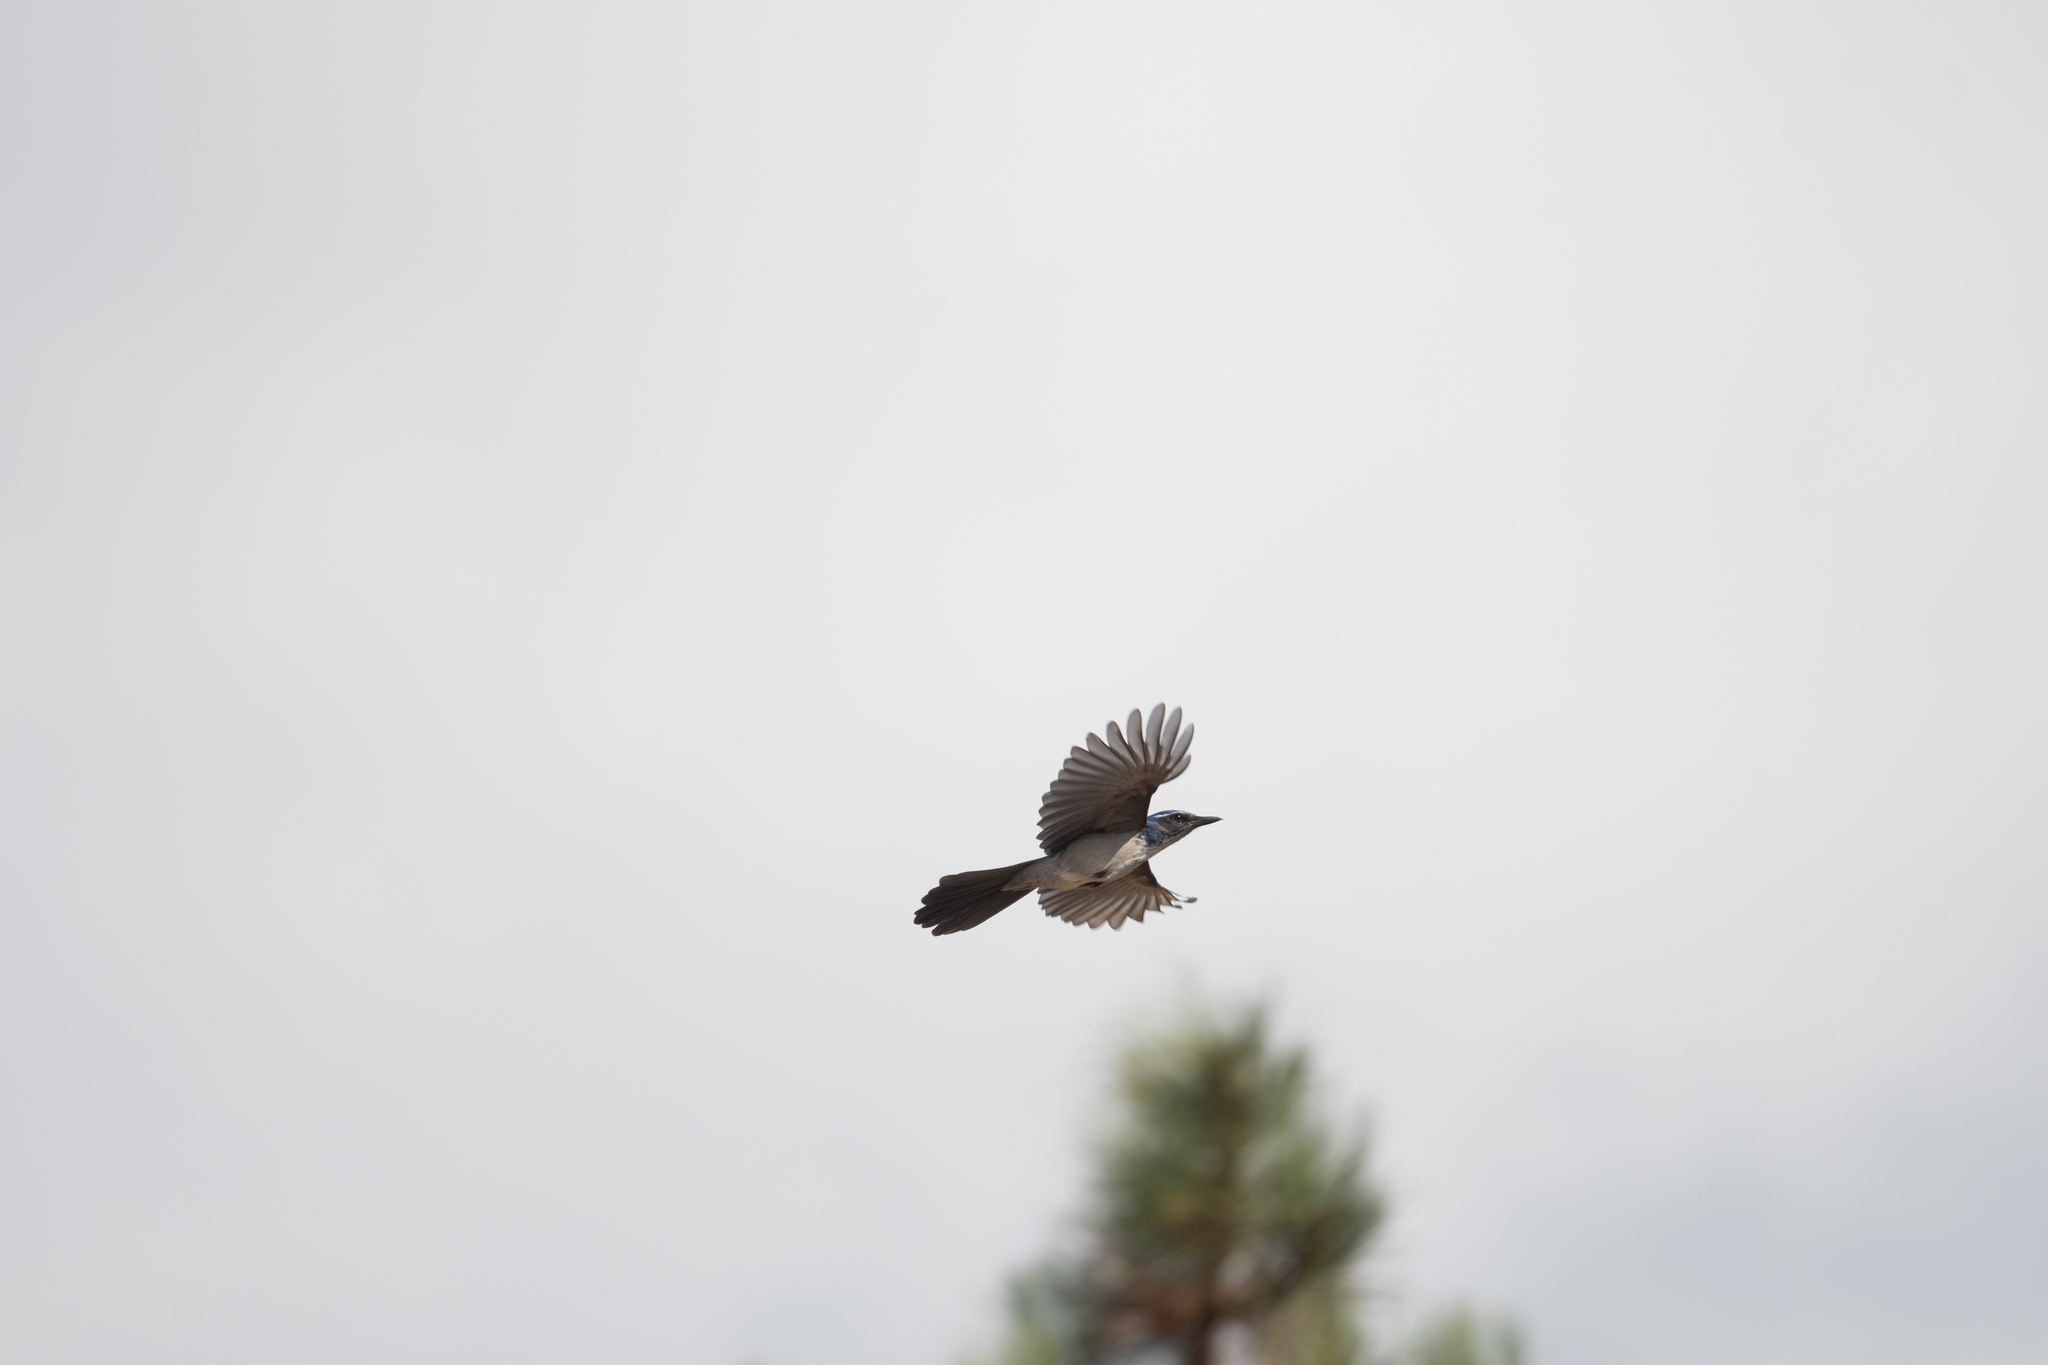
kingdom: Animalia
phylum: Chordata
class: Aves
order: Passeriformes
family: Corvidae
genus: Aphelocoma
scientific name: Aphelocoma californica
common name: California scrub-jay
